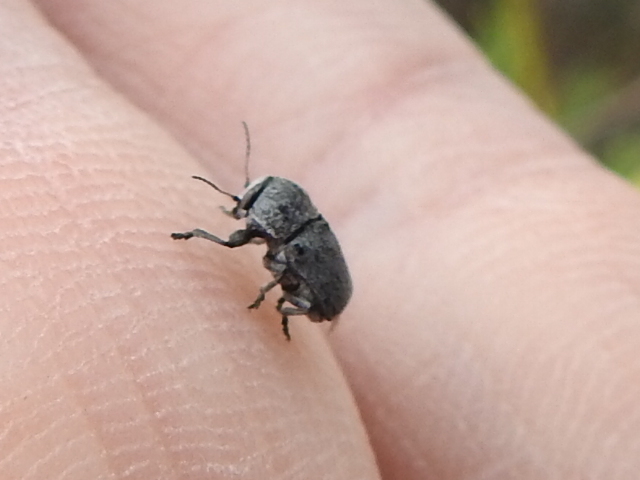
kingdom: Animalia
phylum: Arthropoda
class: Insecta
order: Coleoptera
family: Chrysomelidae
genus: Pachybrachis
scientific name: Pachybrachis morosus
